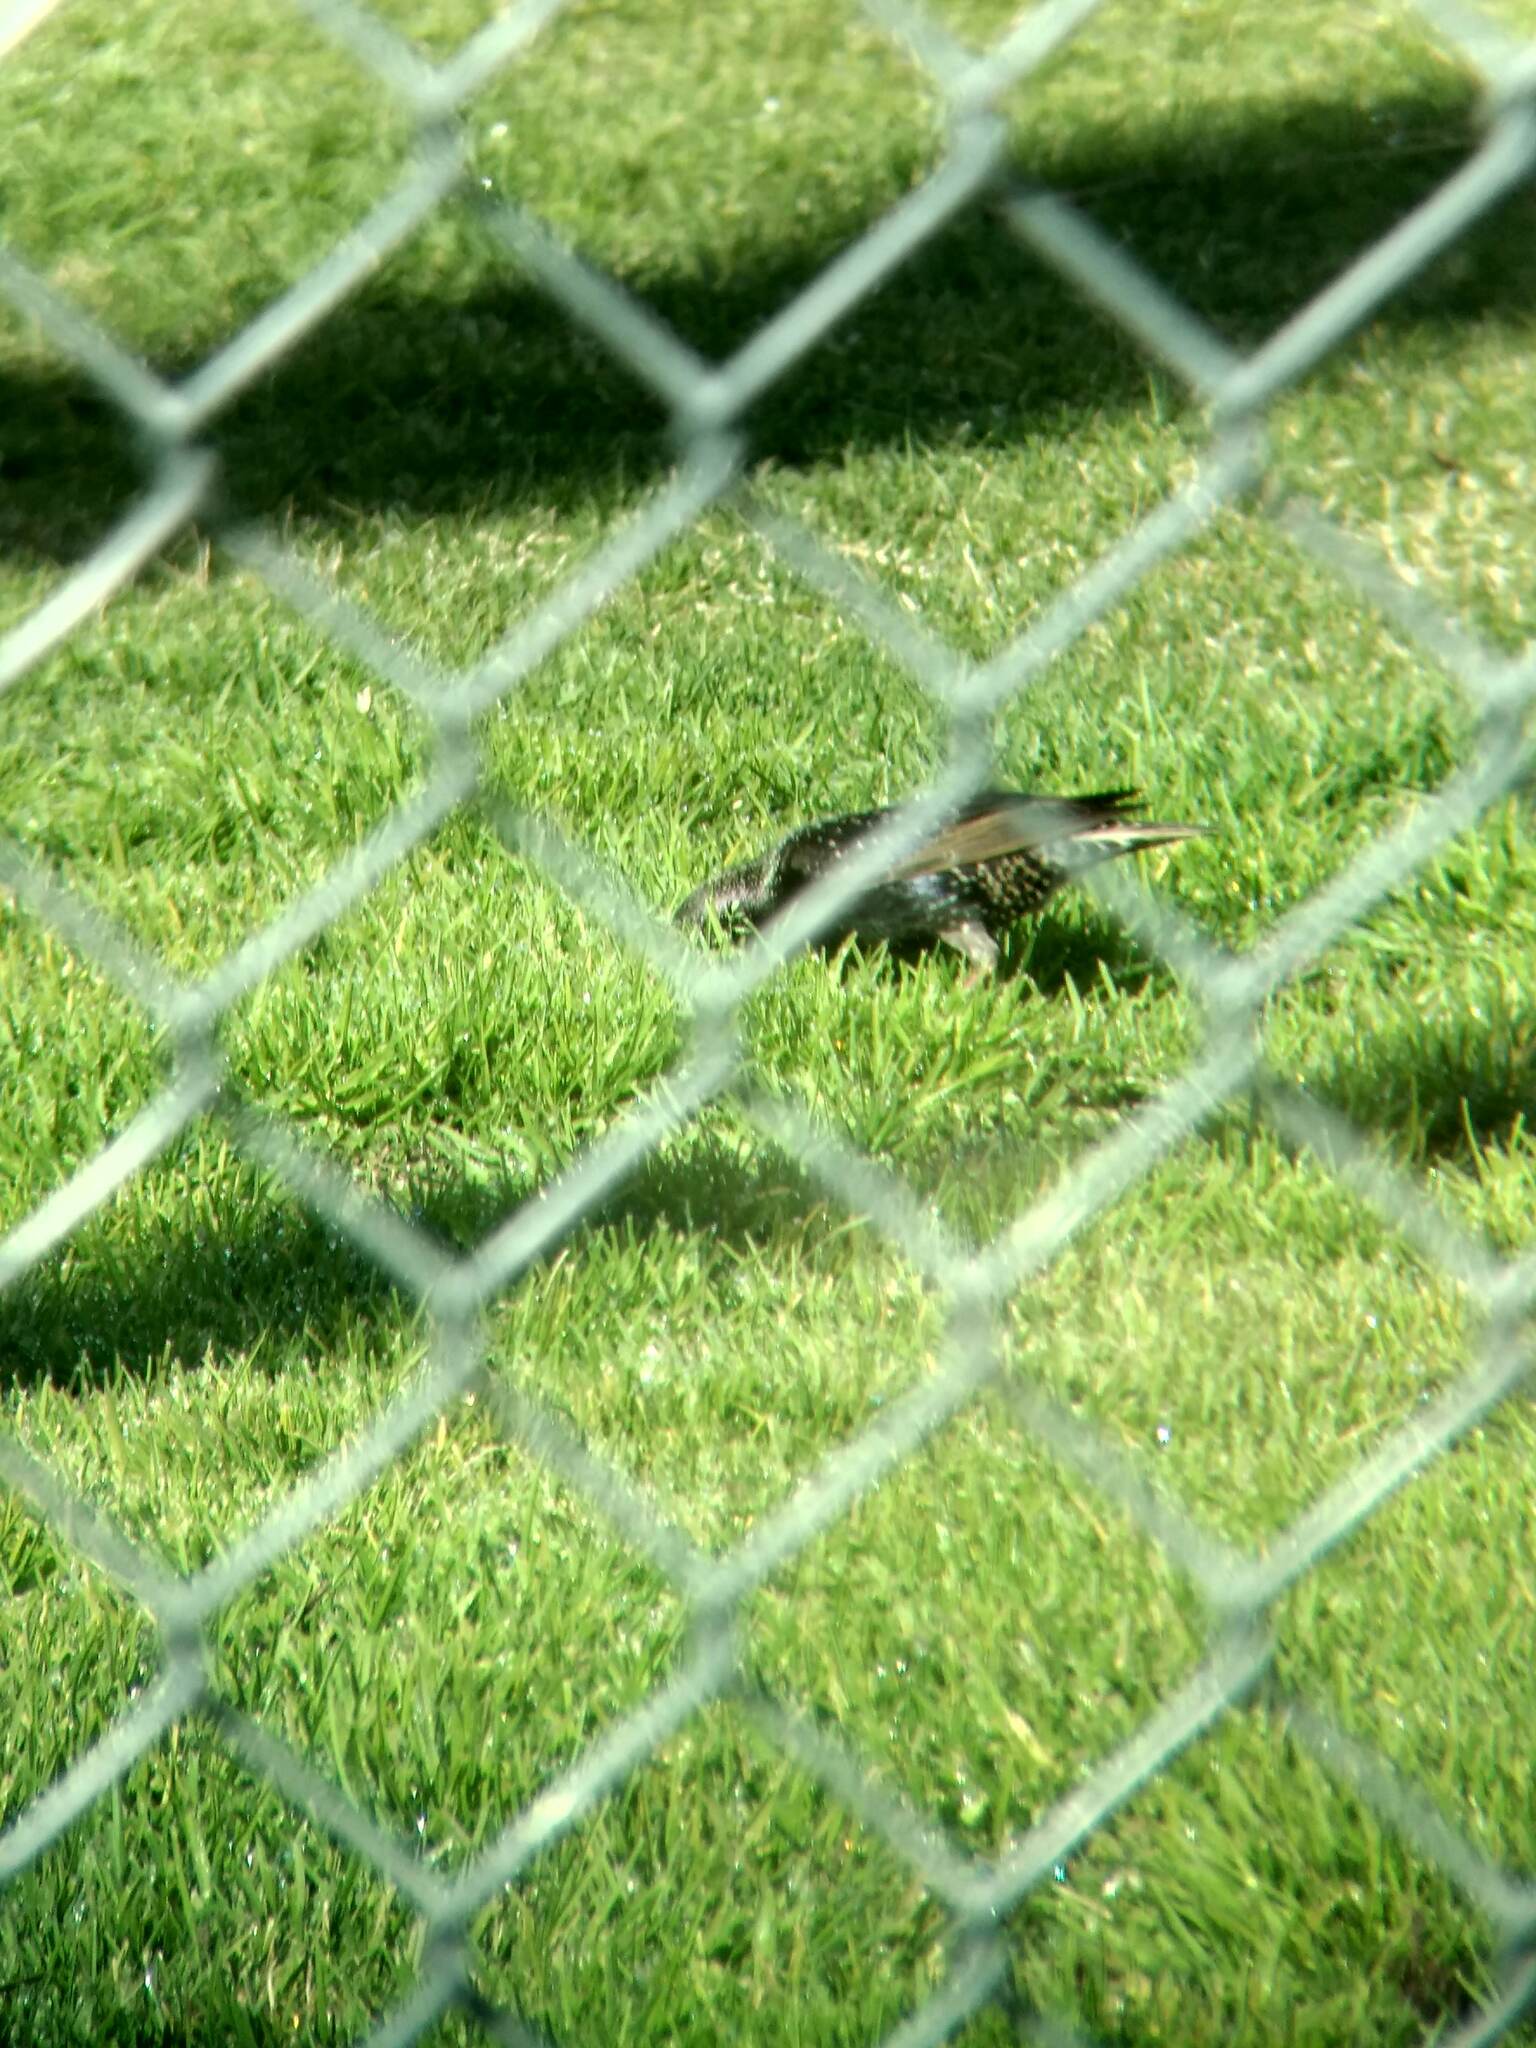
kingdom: Animalia
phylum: Chordata
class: Aves
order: Passeriformes
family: Sturnidae
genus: Sturnus
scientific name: Sturnus vulgaris
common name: Common starling
